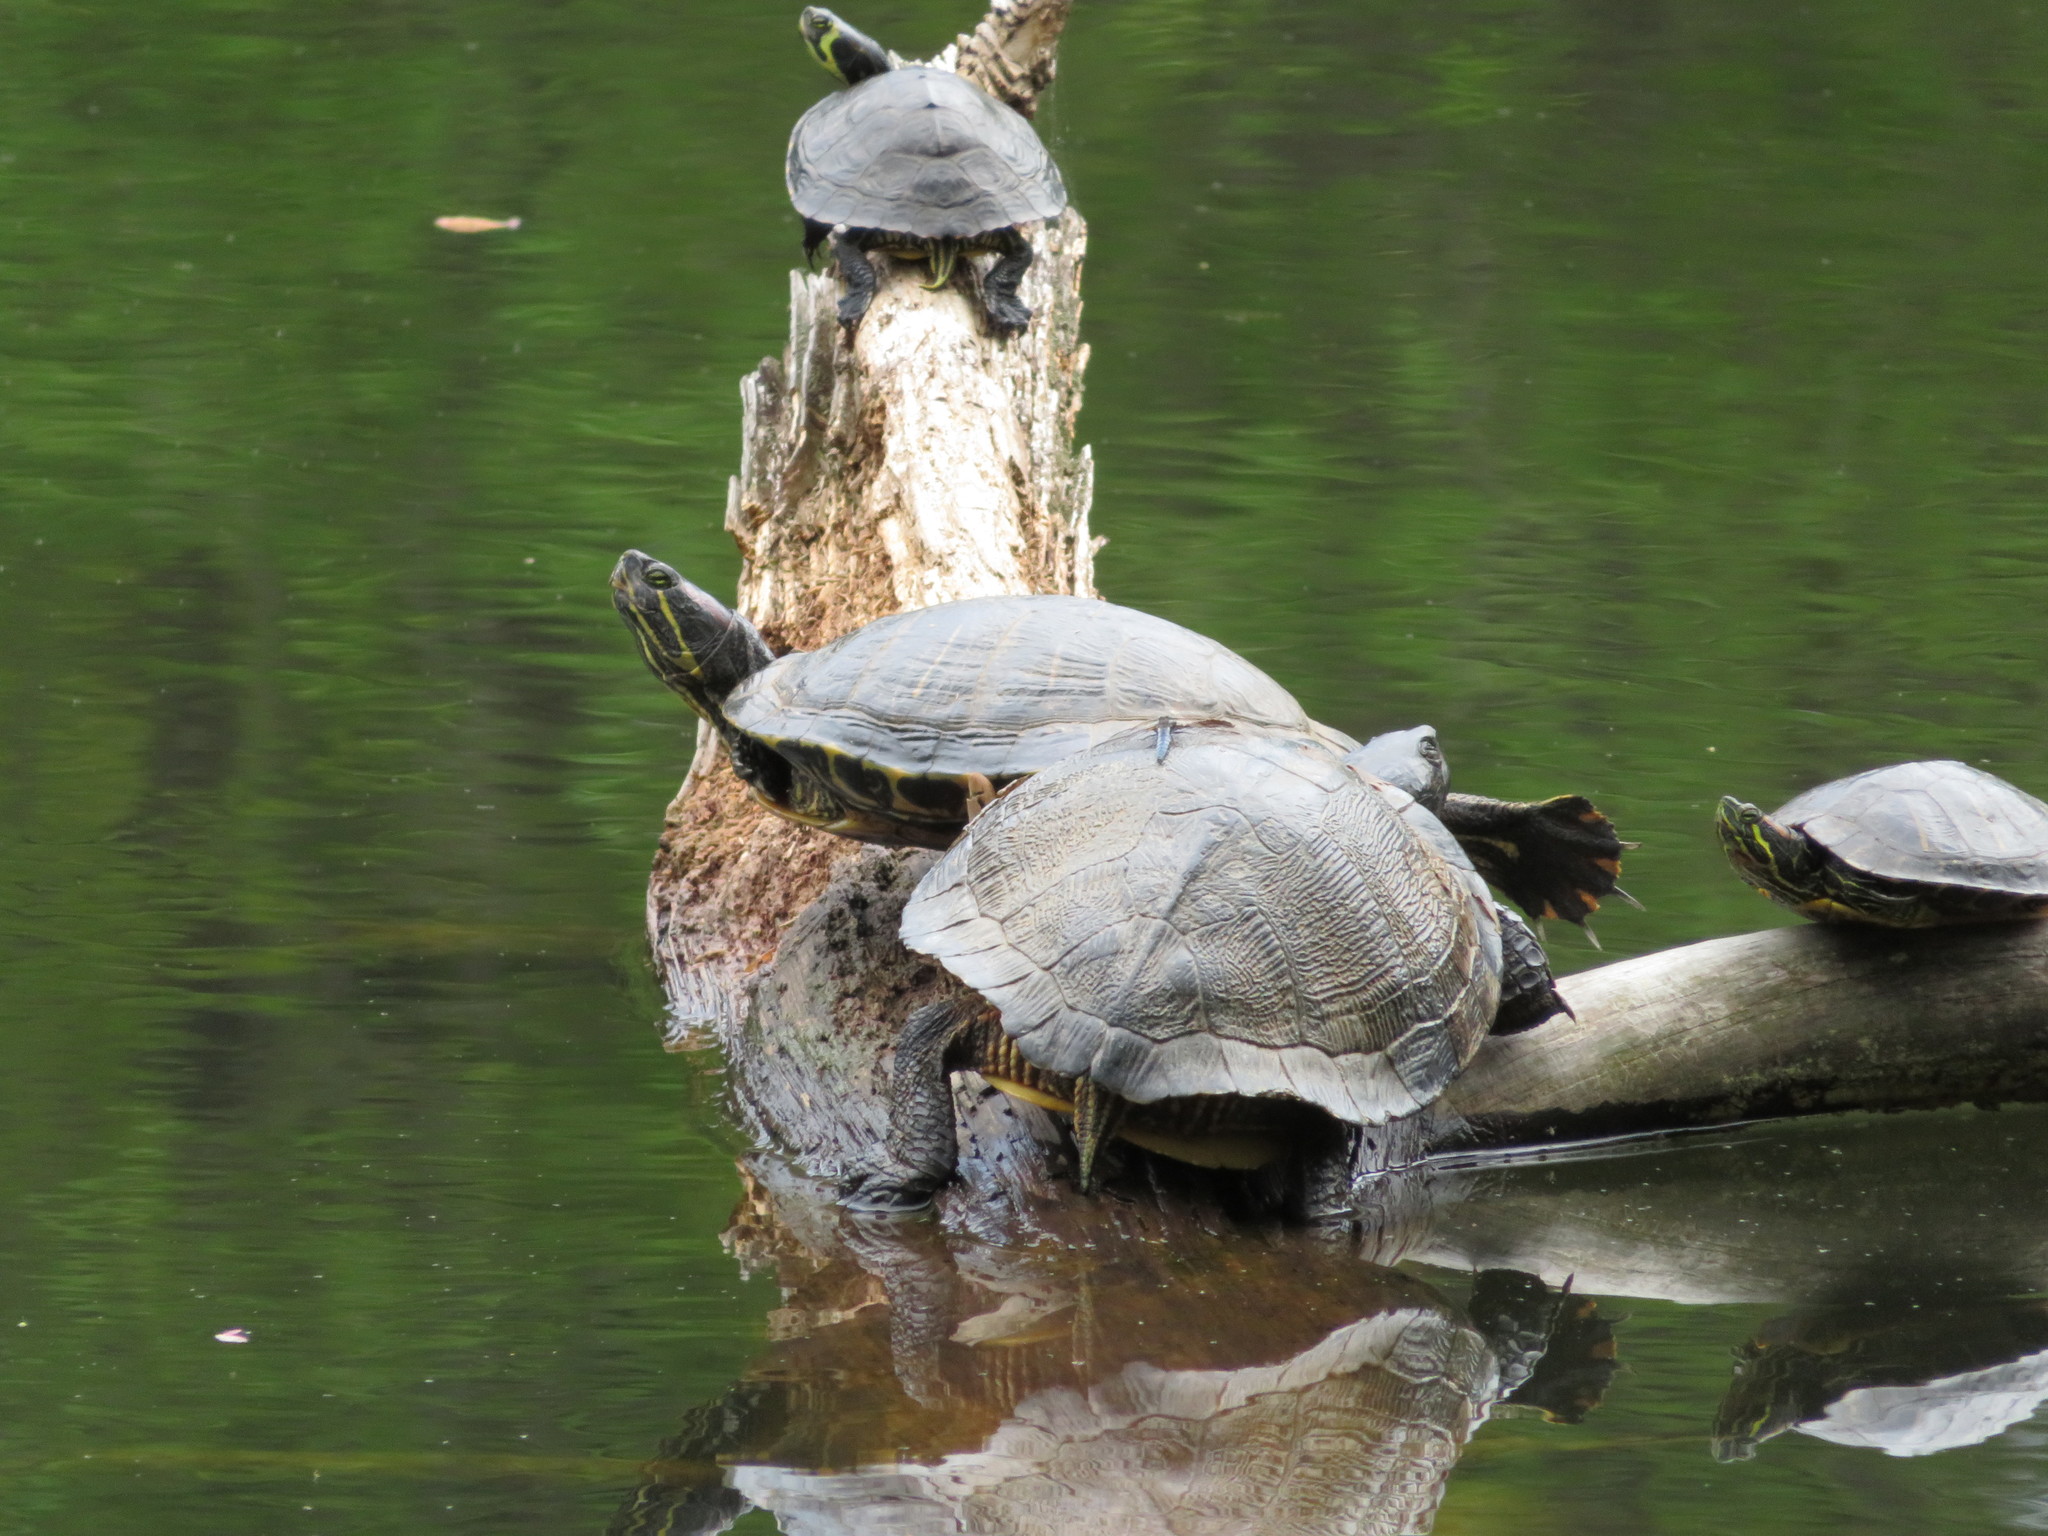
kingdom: Animalia
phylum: Chordata
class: Testudines
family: Emydidae
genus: Trachemys
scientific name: Trachemys scripta
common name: Slider
